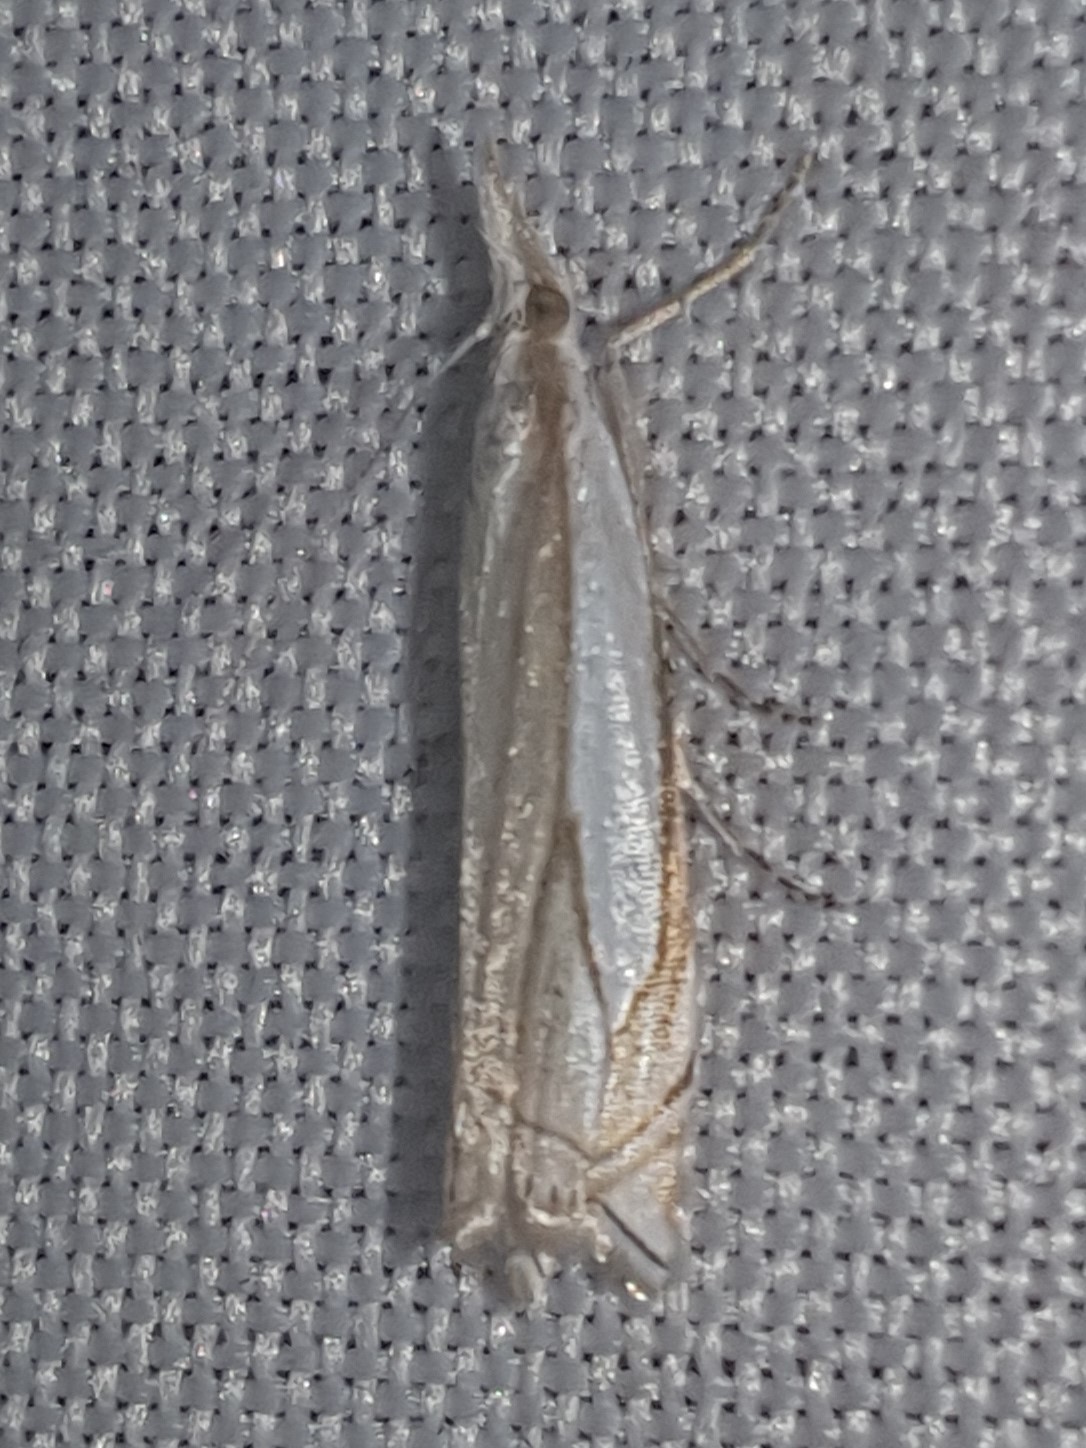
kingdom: Animalia
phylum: Arthropoda
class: Insecta
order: Lepidoptera
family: Crambidae
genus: Crambus
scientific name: Crambus pascuella
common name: Inlaid grass-veneer
